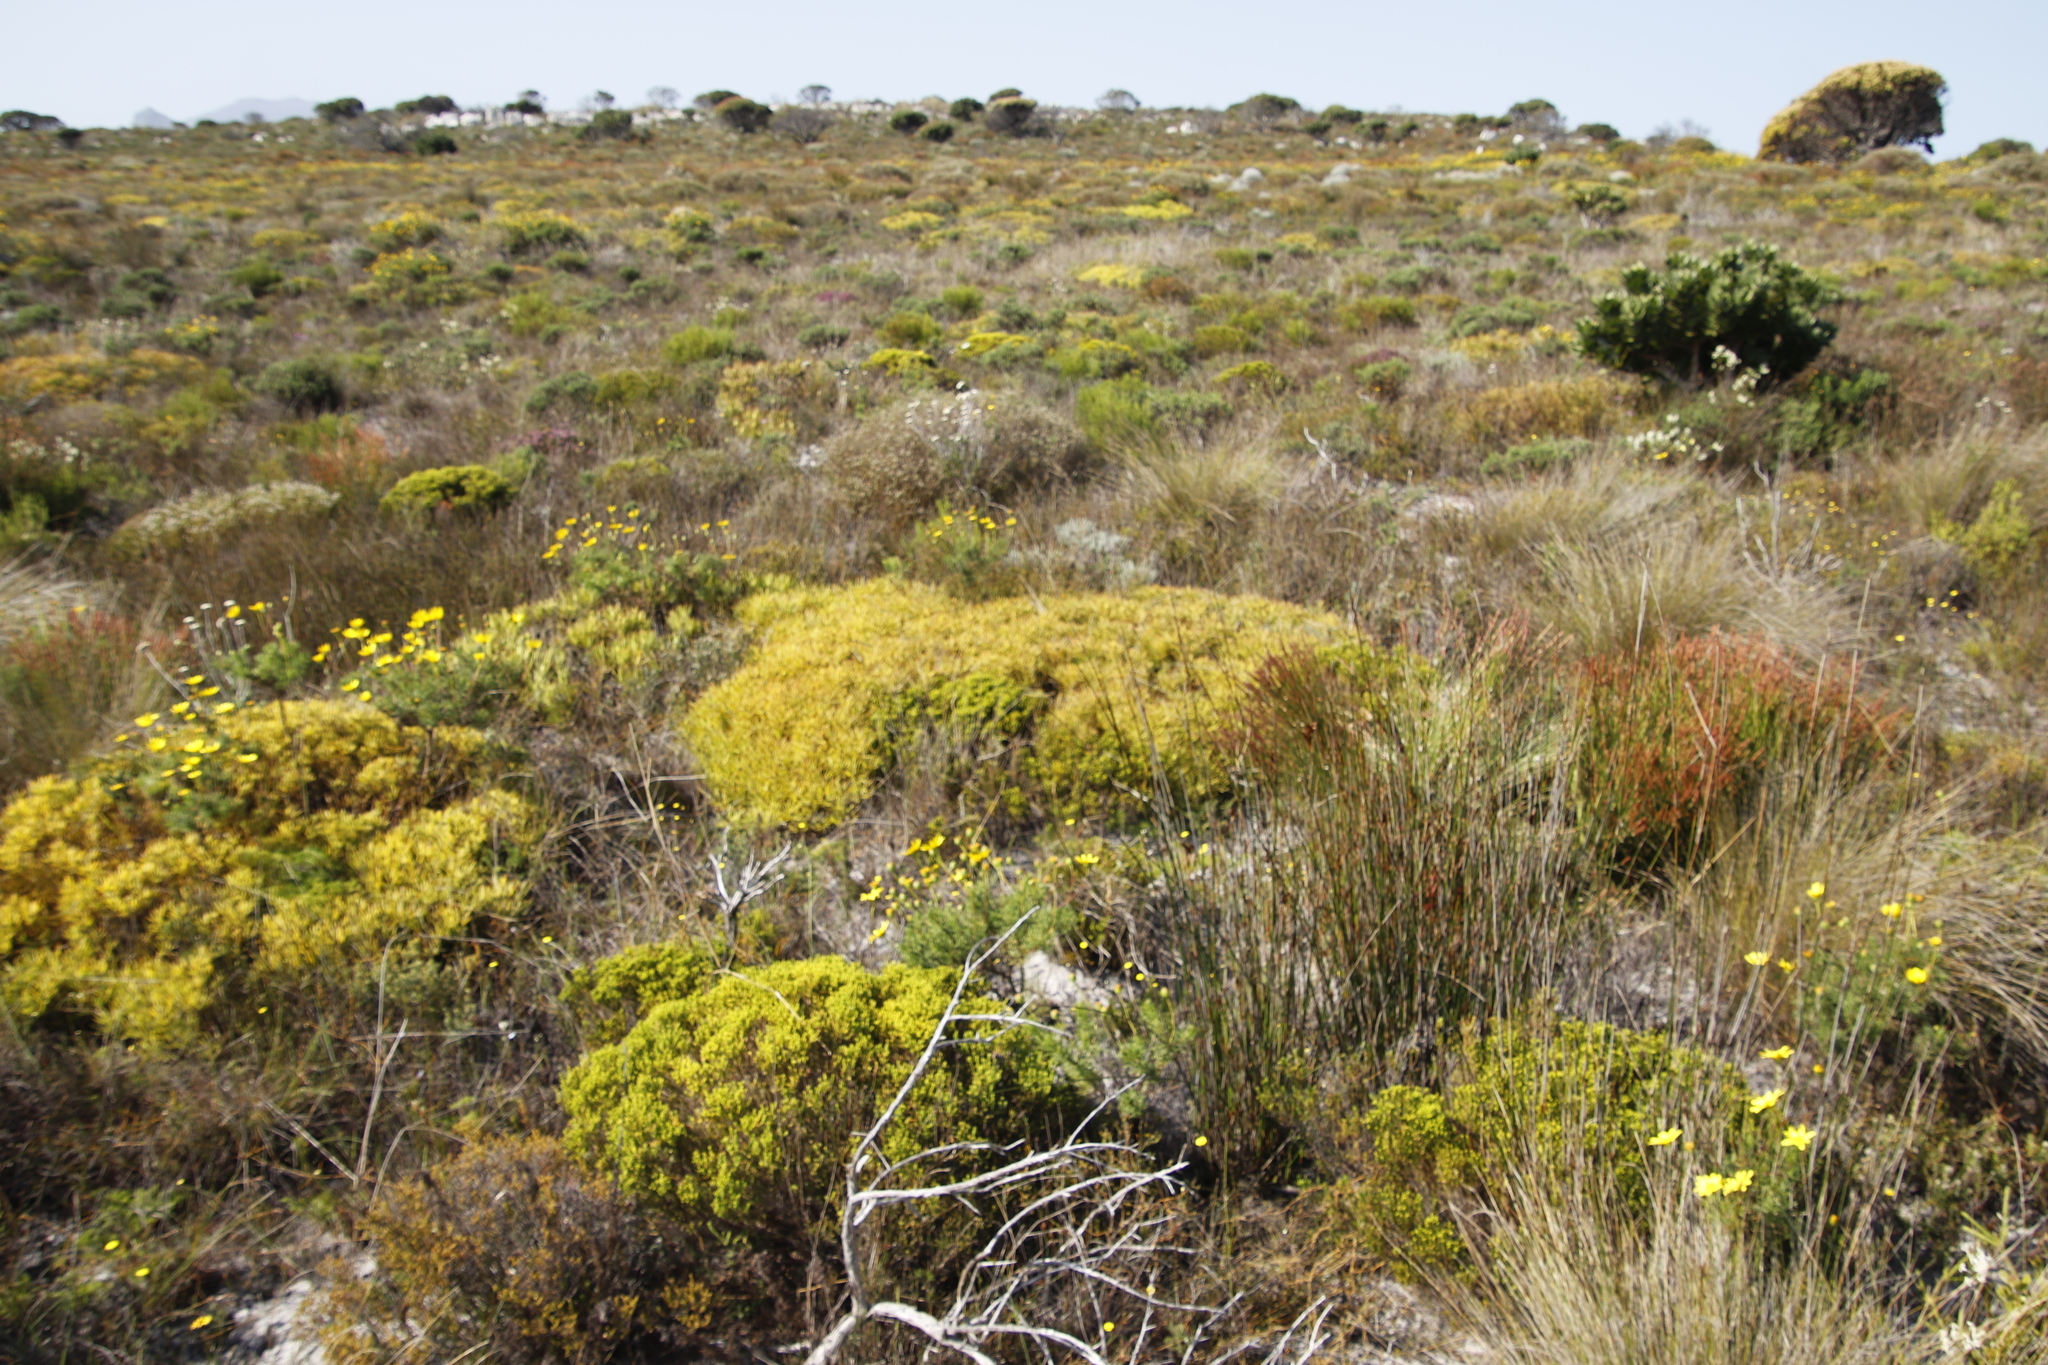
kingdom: Plantae
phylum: Tracheophyta
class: Magnoliopsida
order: Proteales
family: Proteaceae
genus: Leucadendron
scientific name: Leucadendron salignum
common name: Common sunshine conebush
